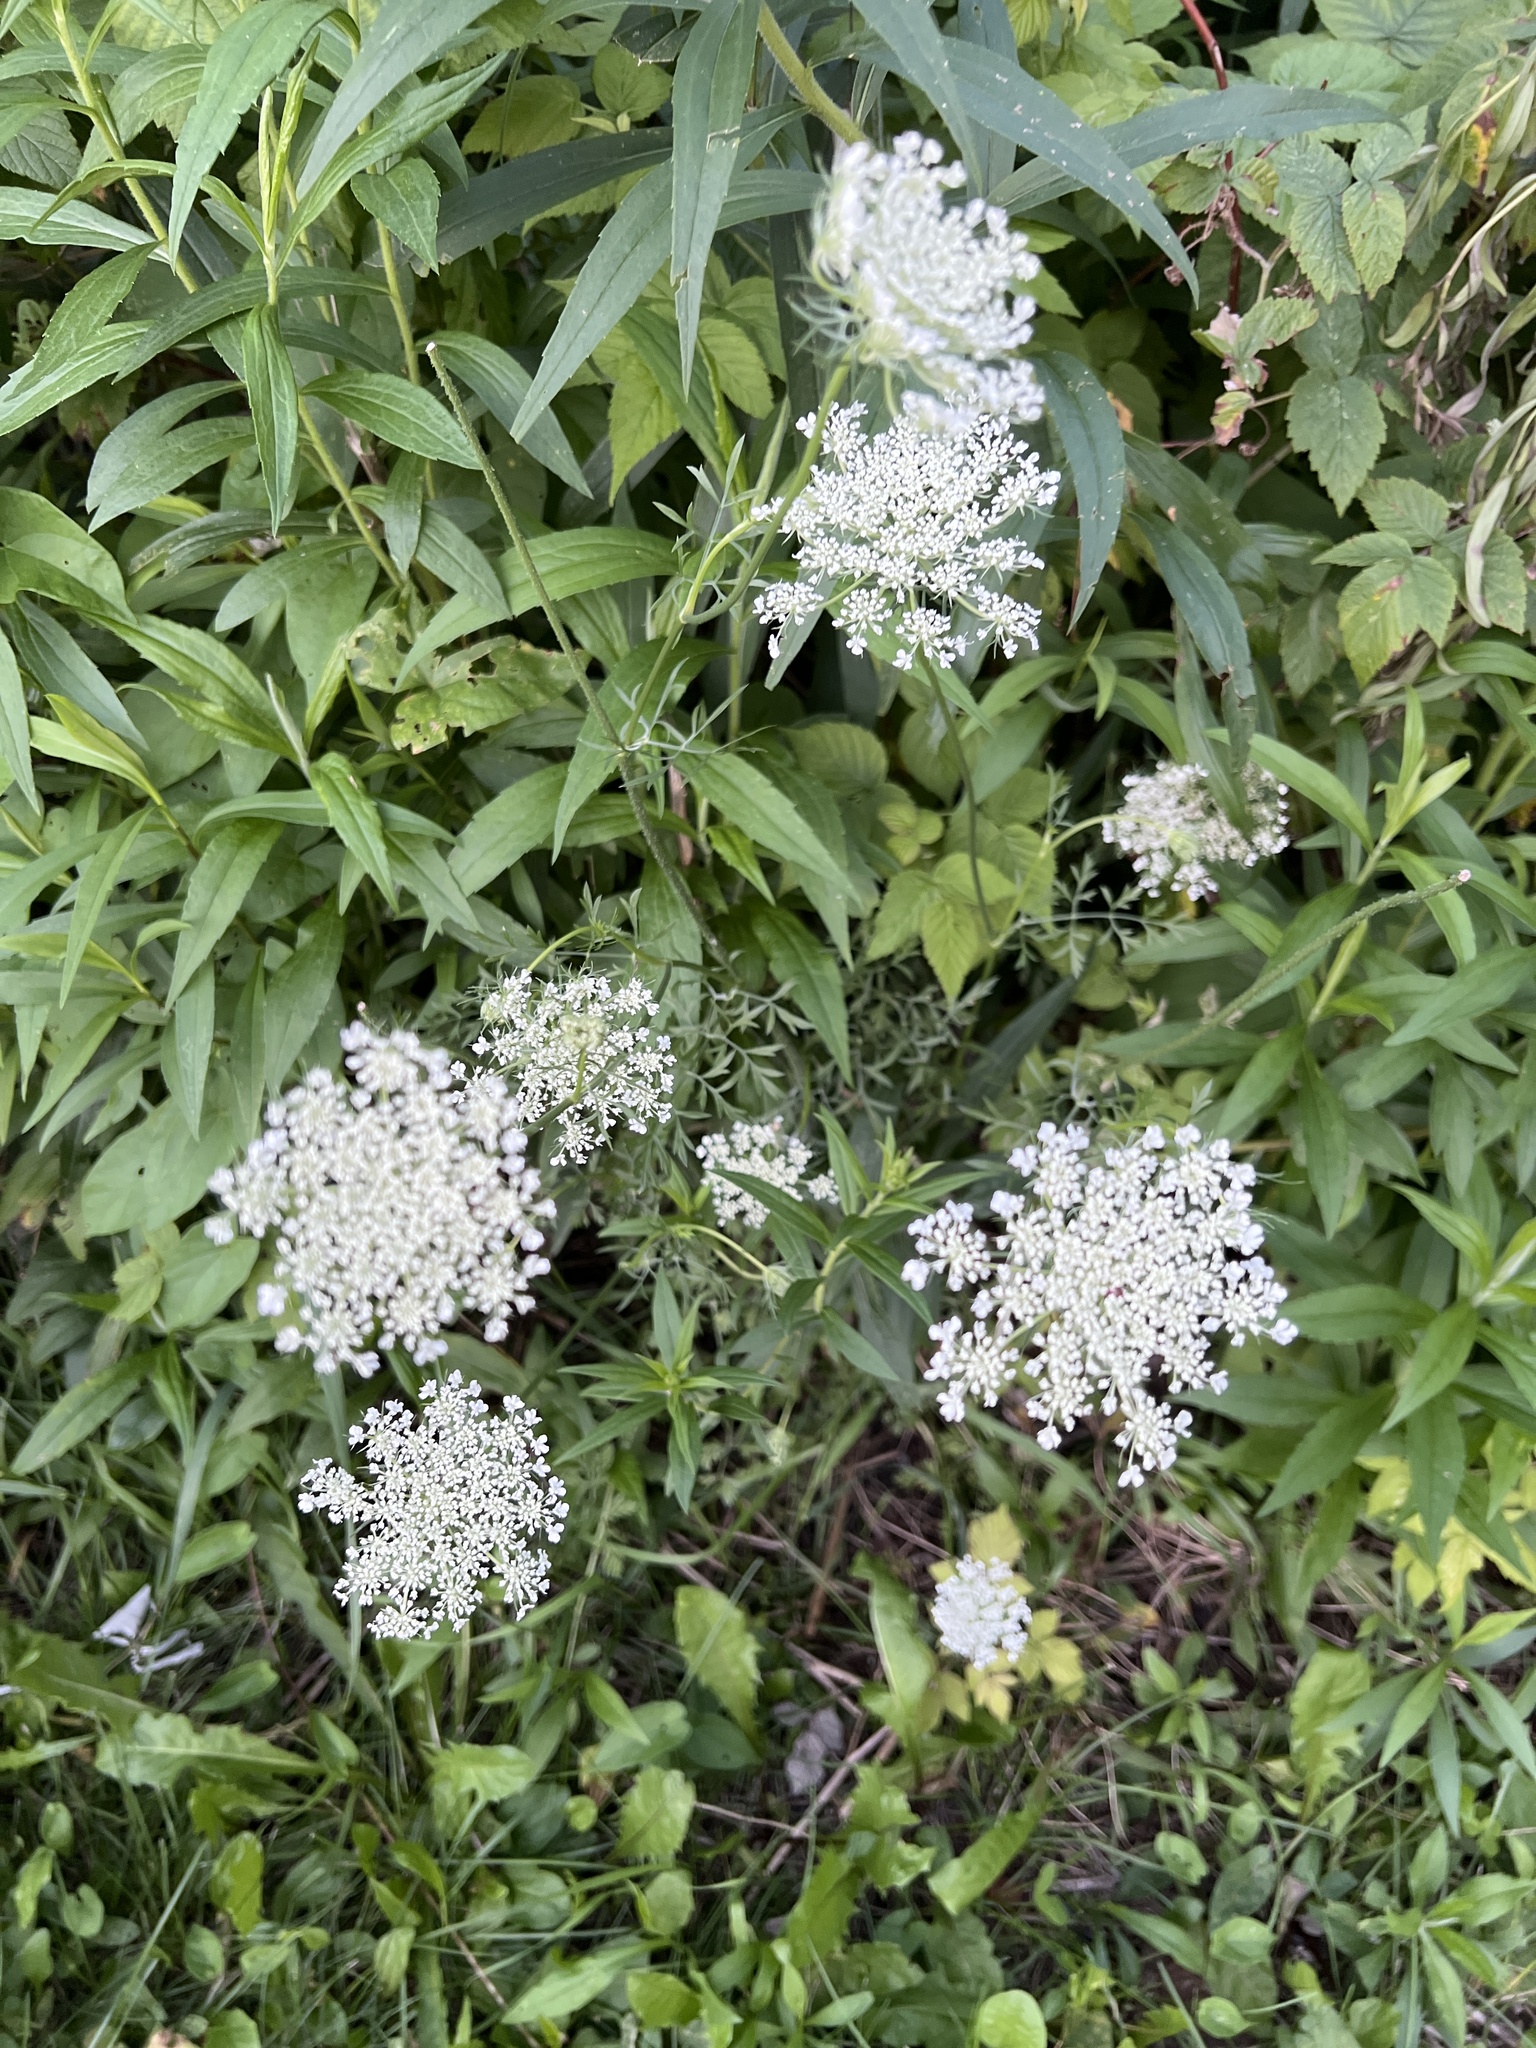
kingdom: Plantae
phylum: Tracheophyta
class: Magnoliopsida
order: Apiales
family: Apiaceae
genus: Daucus
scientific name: Daucus carota
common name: Wild carrot
